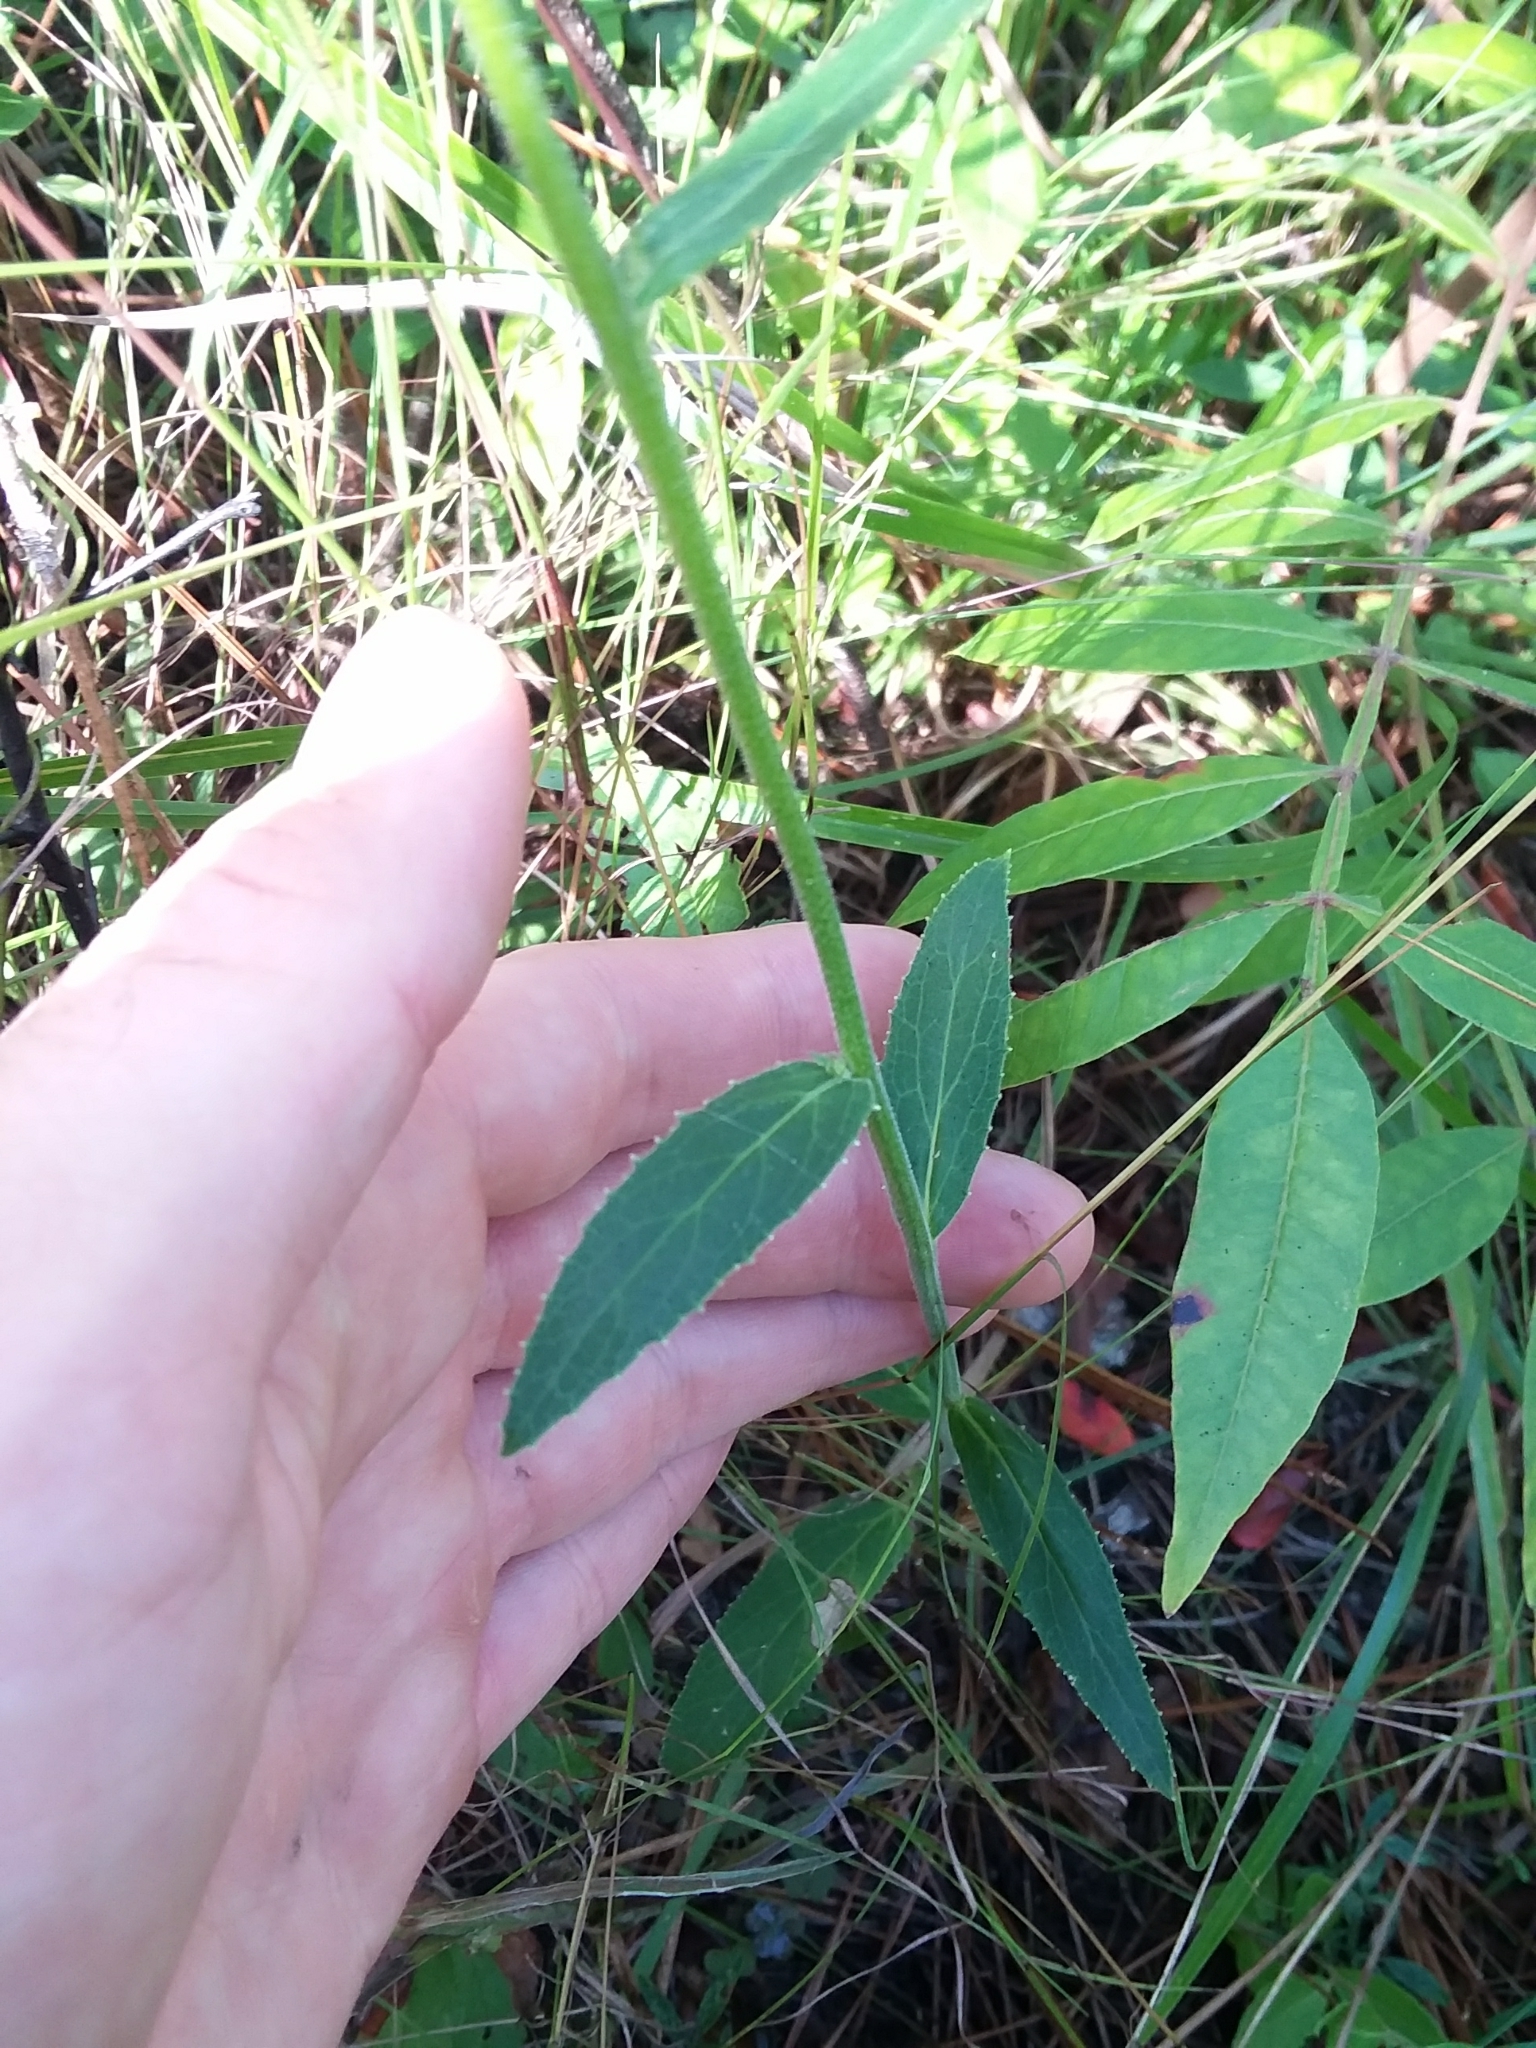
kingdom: Plantae
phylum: Tracheophyta
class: Magnoliopsida
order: Asterales
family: Campanulaceae
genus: Lobelia
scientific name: Lobelia puberula
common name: Purple dewdrop
